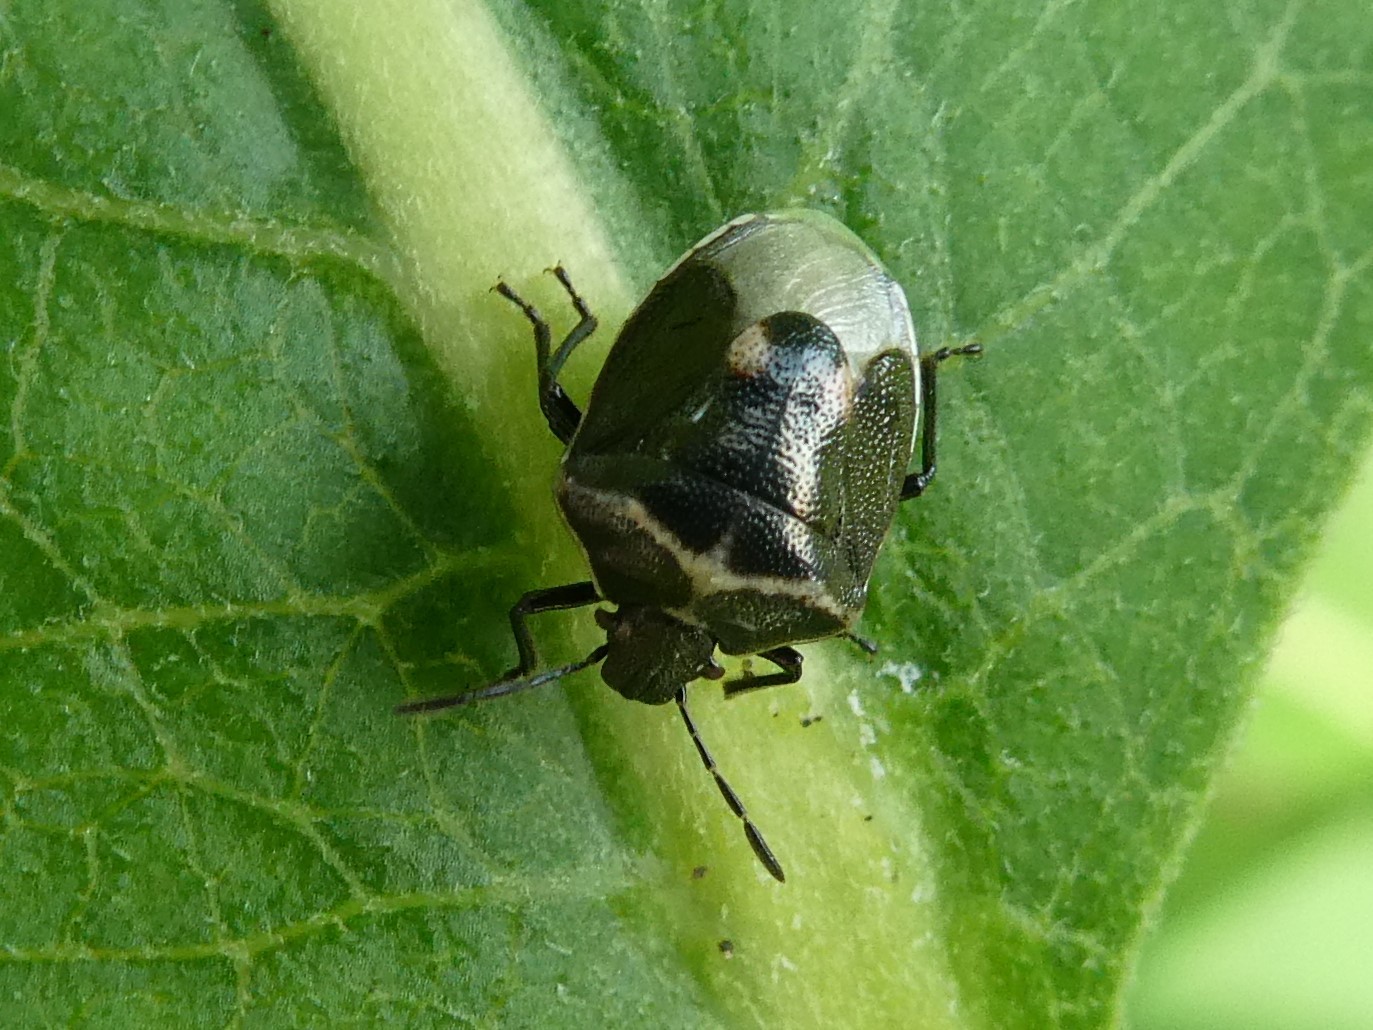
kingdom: Animalia
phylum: Arthropoda
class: Insecta
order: Hemiptera
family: Pentatomidae
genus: Cosmopepla
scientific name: Cosmopepla lintneriana
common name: Twice-stabbed stink bug
